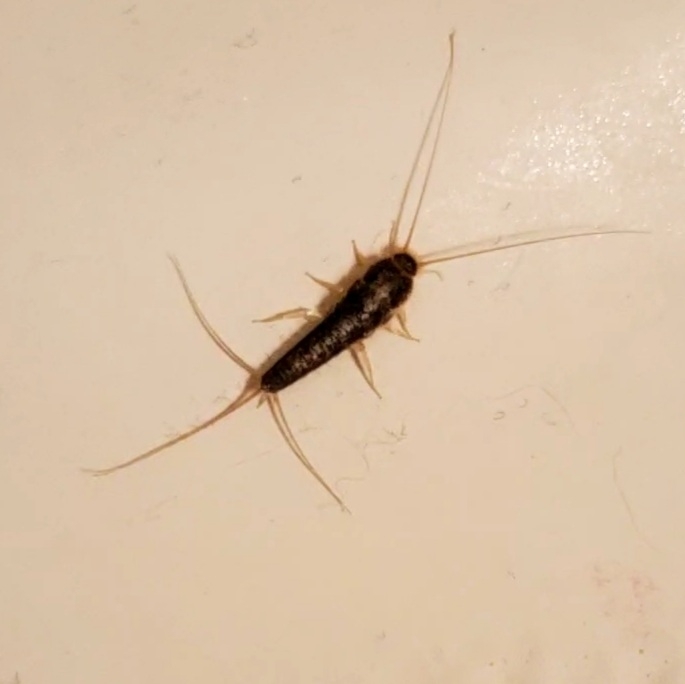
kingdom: Animalia
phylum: Arthropoda
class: Insecta
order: Zygentoma
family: Lepismatidae
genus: Ctenolepisma
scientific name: Ctenolepisma longicaudatum
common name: Silverfish
